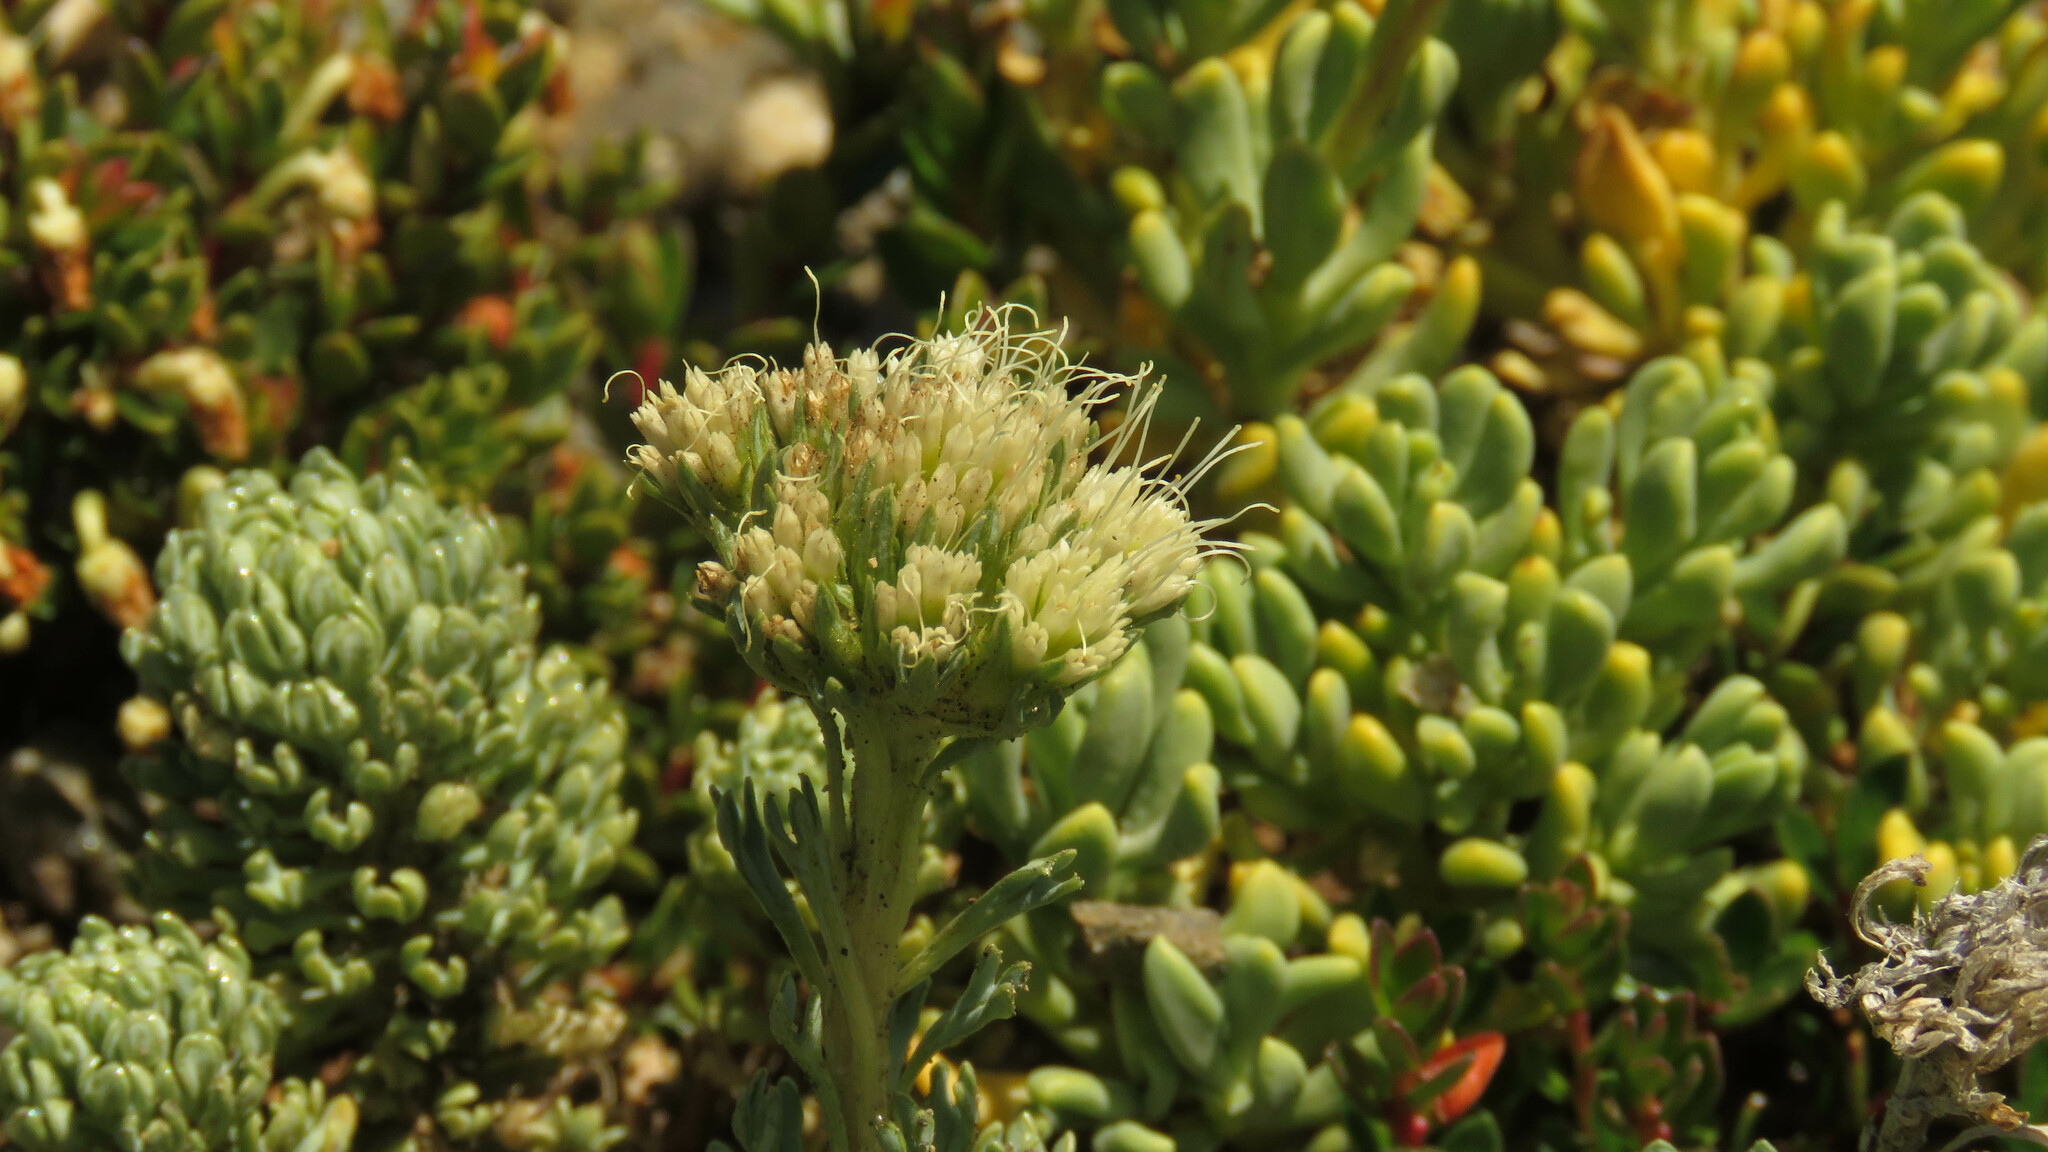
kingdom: Plantae
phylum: Tracheophyta
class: Magnoliopsida
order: Asterales
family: Calyceraceae
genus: Moschopsis
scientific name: Moschopsis caleofuensis
